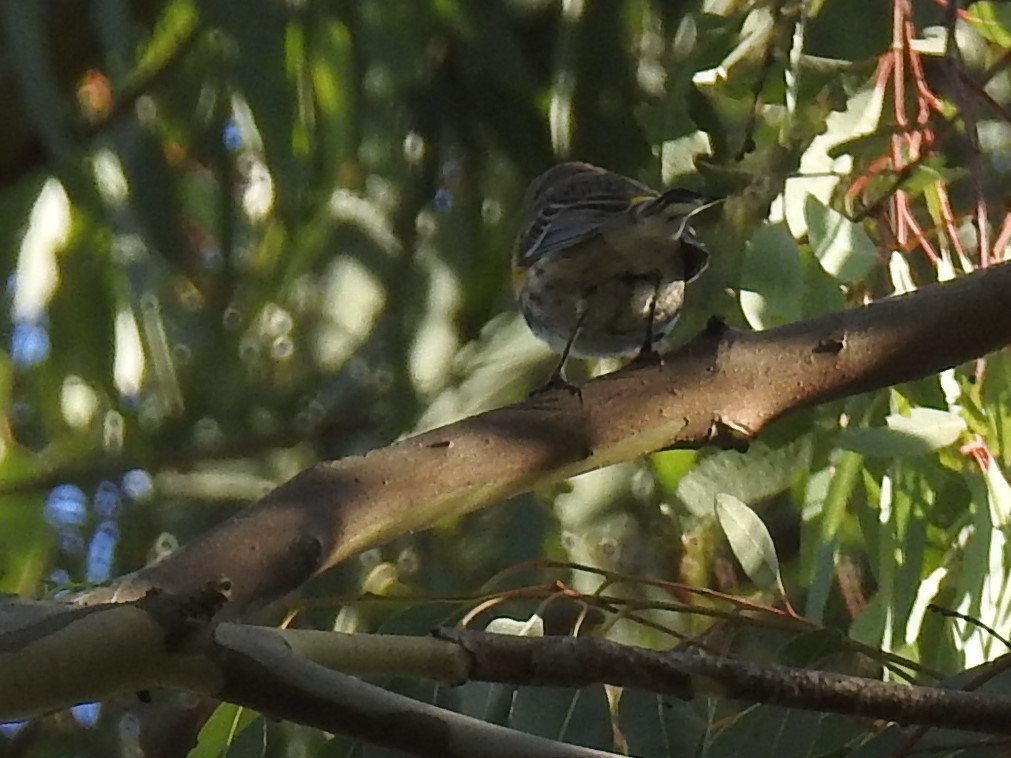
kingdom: Animalia
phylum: Chordata
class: Aves
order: Passeriformes
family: Parulidae
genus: Setophaga
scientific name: Setophaga coronata
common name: Myrtle warbler
